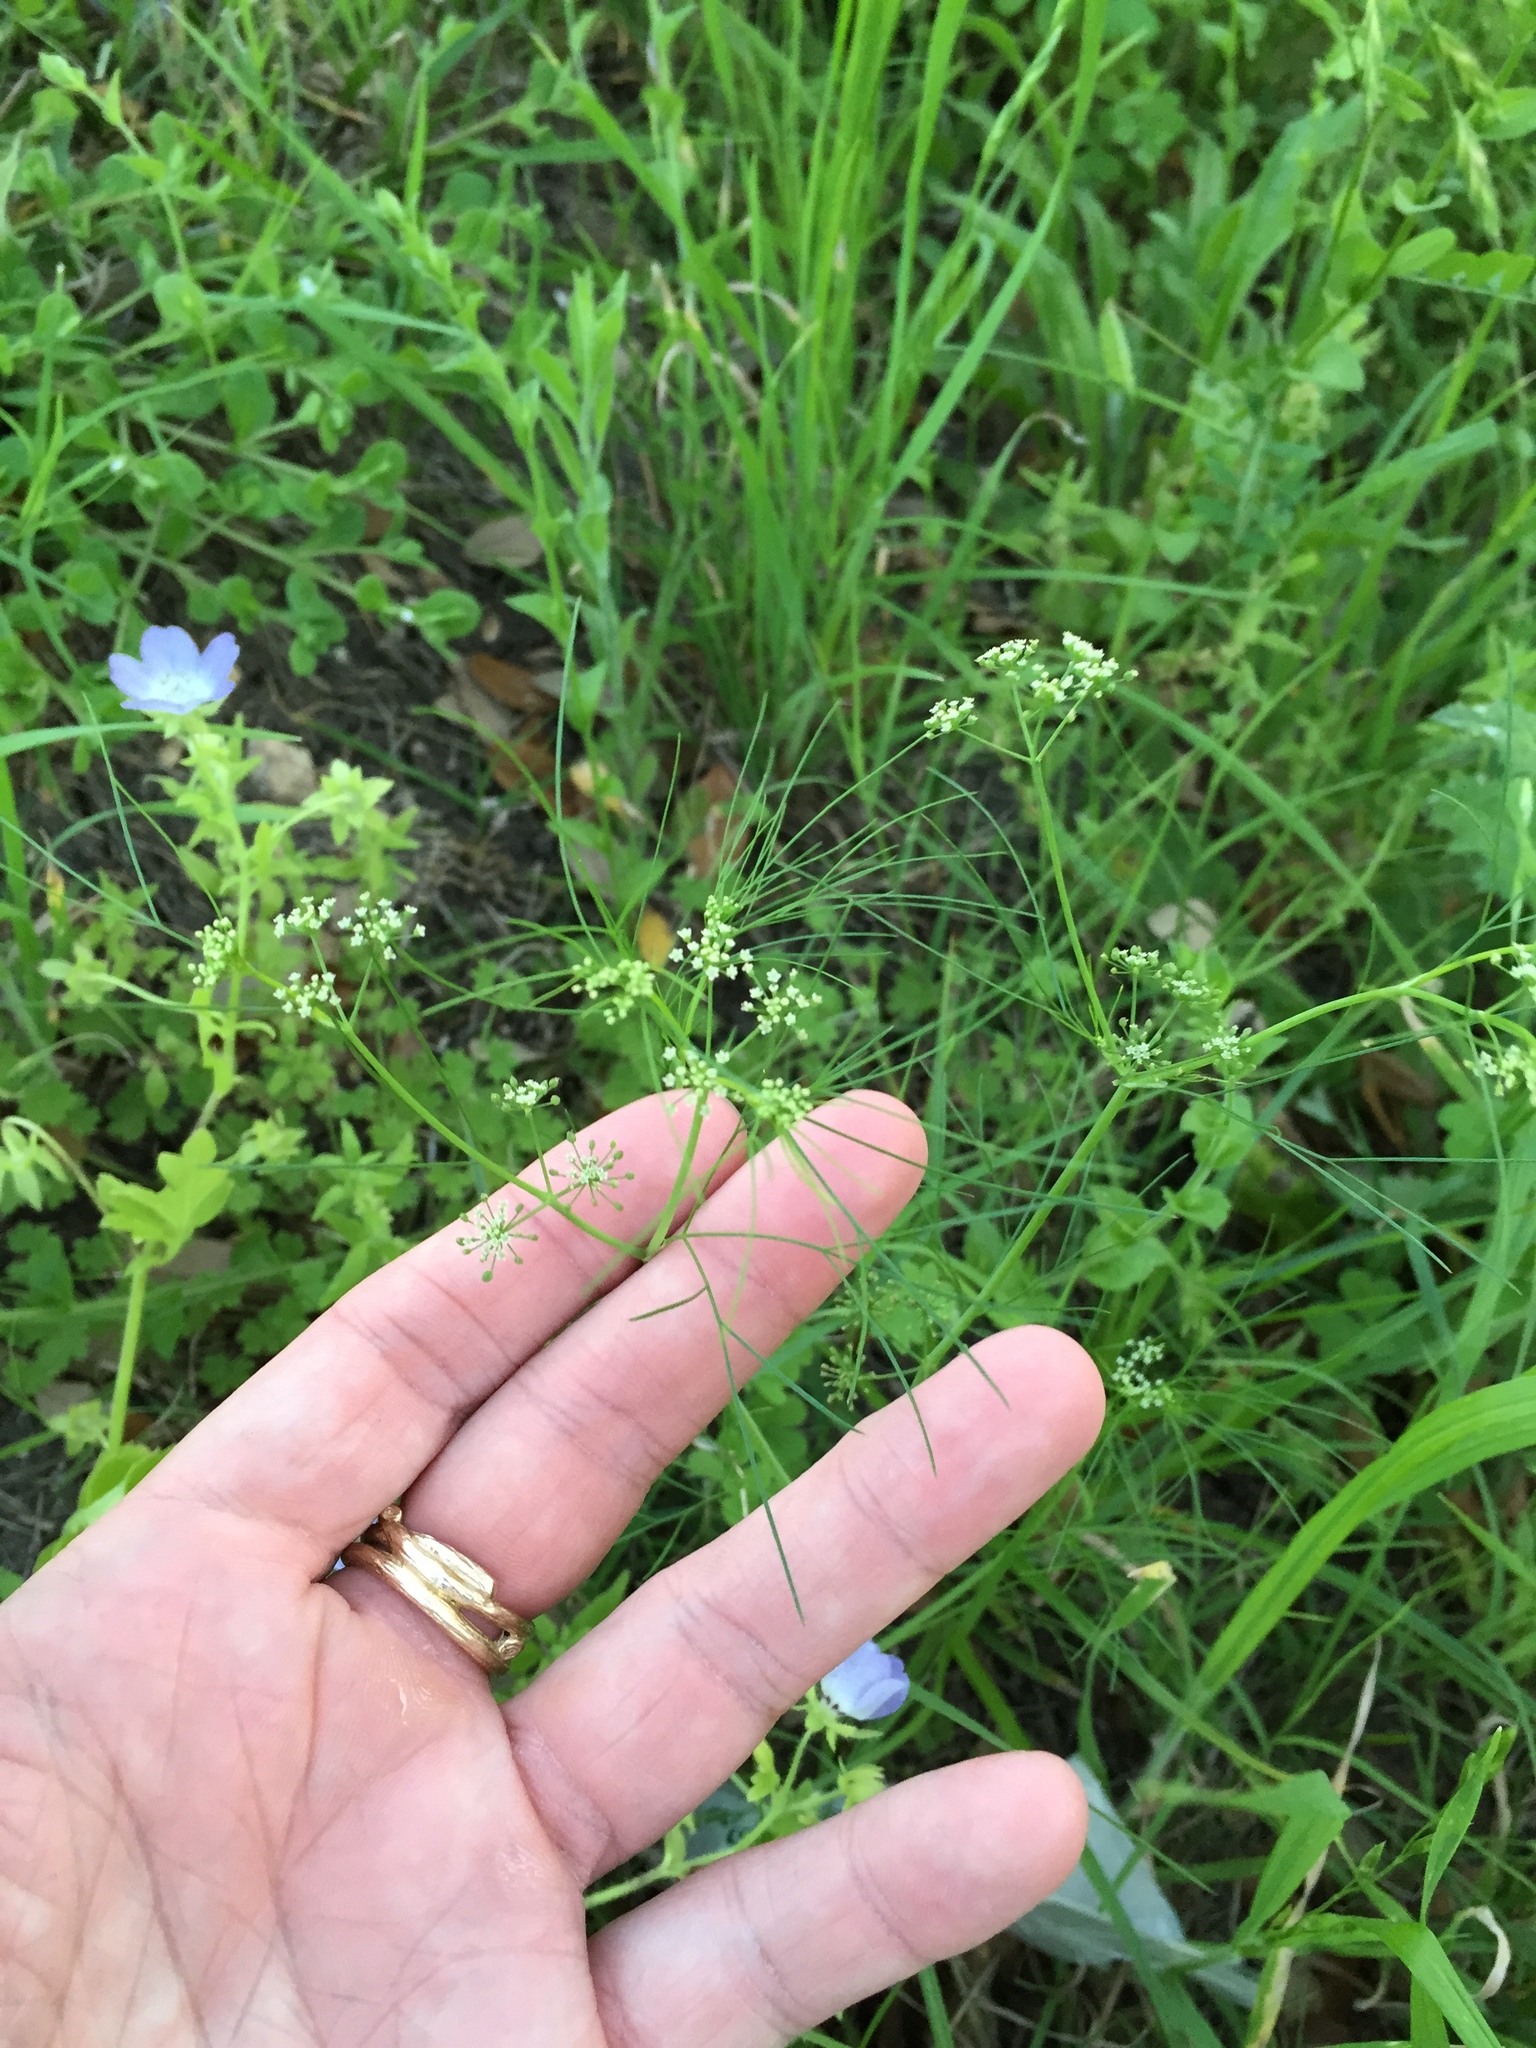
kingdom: Plantae
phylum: Tracheophyta
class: Magnoliopsida
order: Apiales
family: Apiaceae
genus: Cyclospermum
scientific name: Cyclospermum leptophyllum
